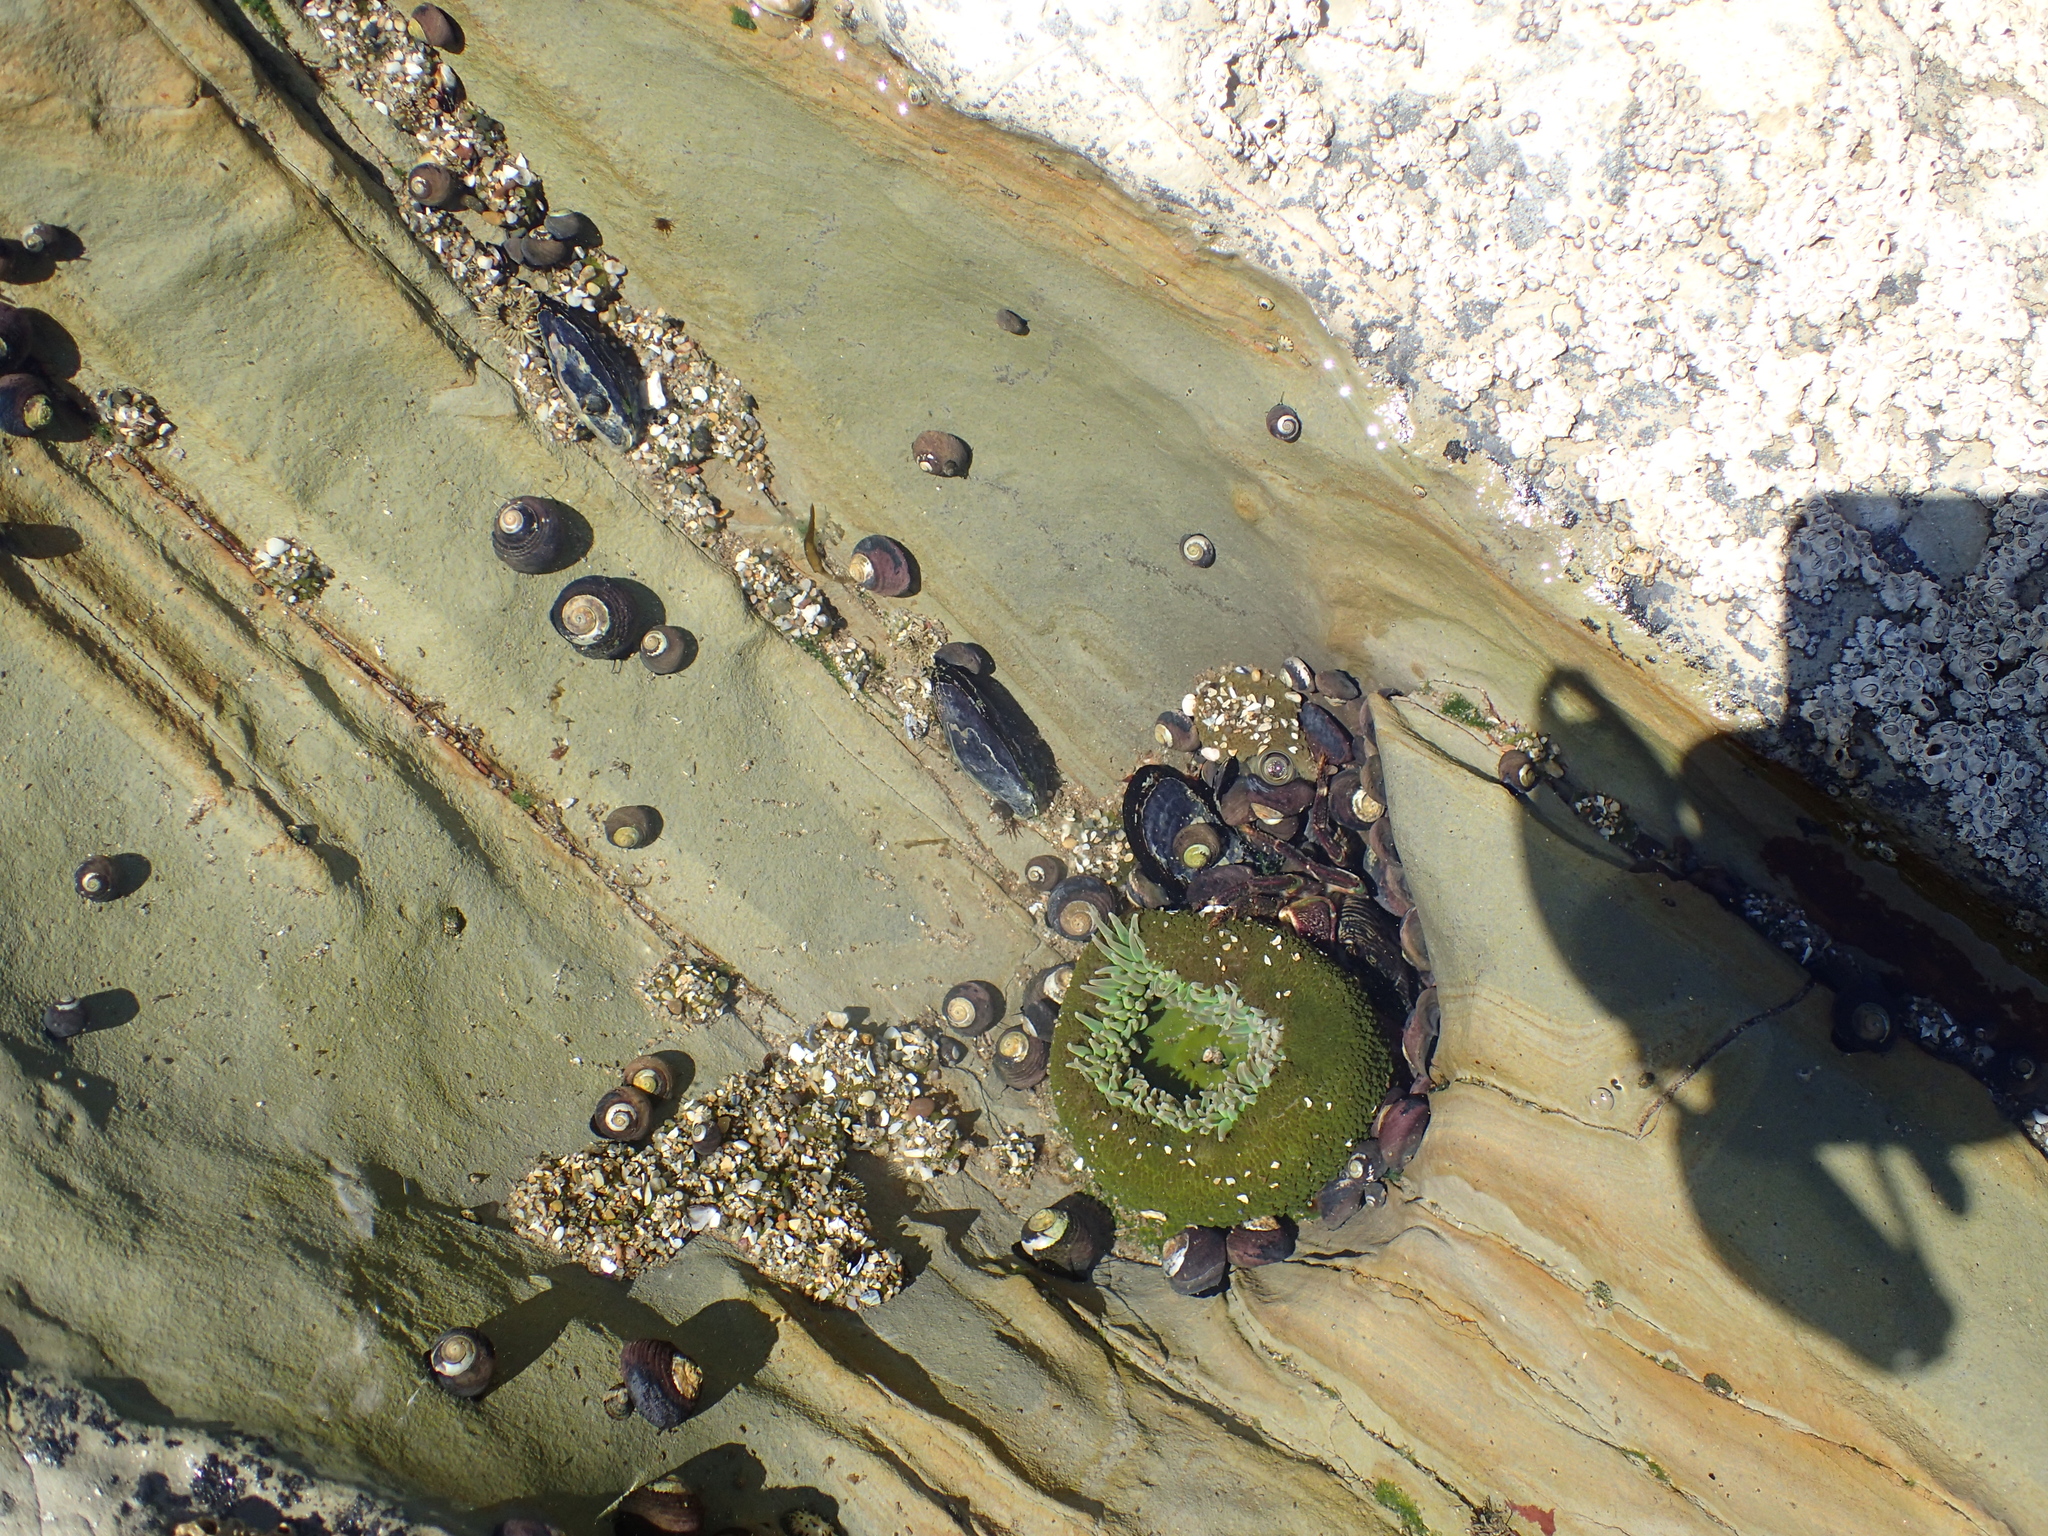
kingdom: Animalia
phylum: Cnidaria
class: Anthozoa
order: Actiniaria
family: Actiniidae
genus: Anthopleura
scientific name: Anthopleura xanthogrammica
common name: Giant green anemone
